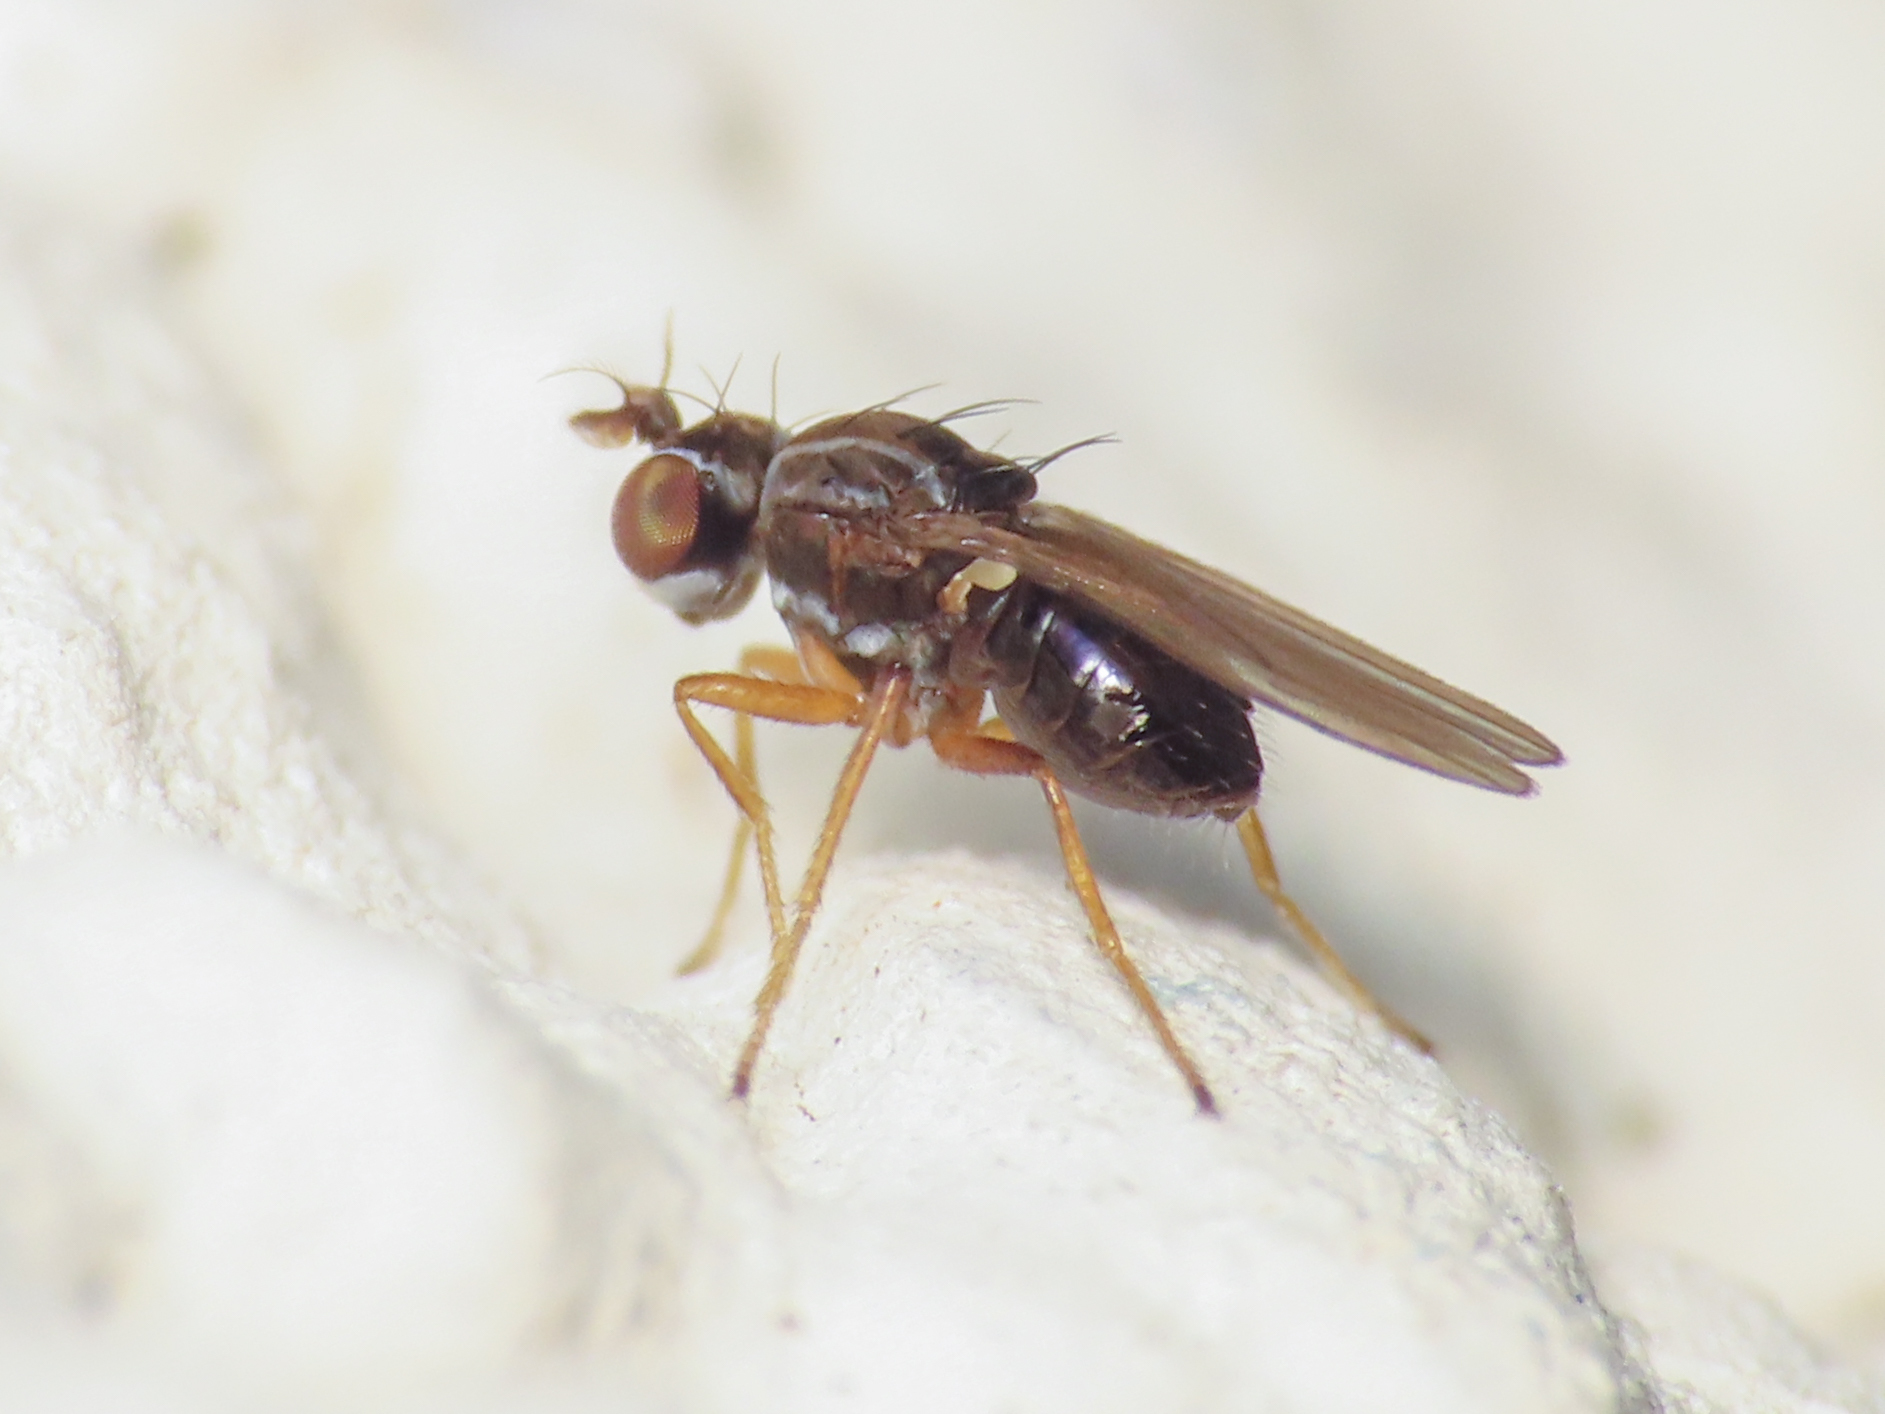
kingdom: Animalia
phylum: Arthropoda
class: Insecta
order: Diptera
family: Ephydridae
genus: Nostima
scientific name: Nostima picta
